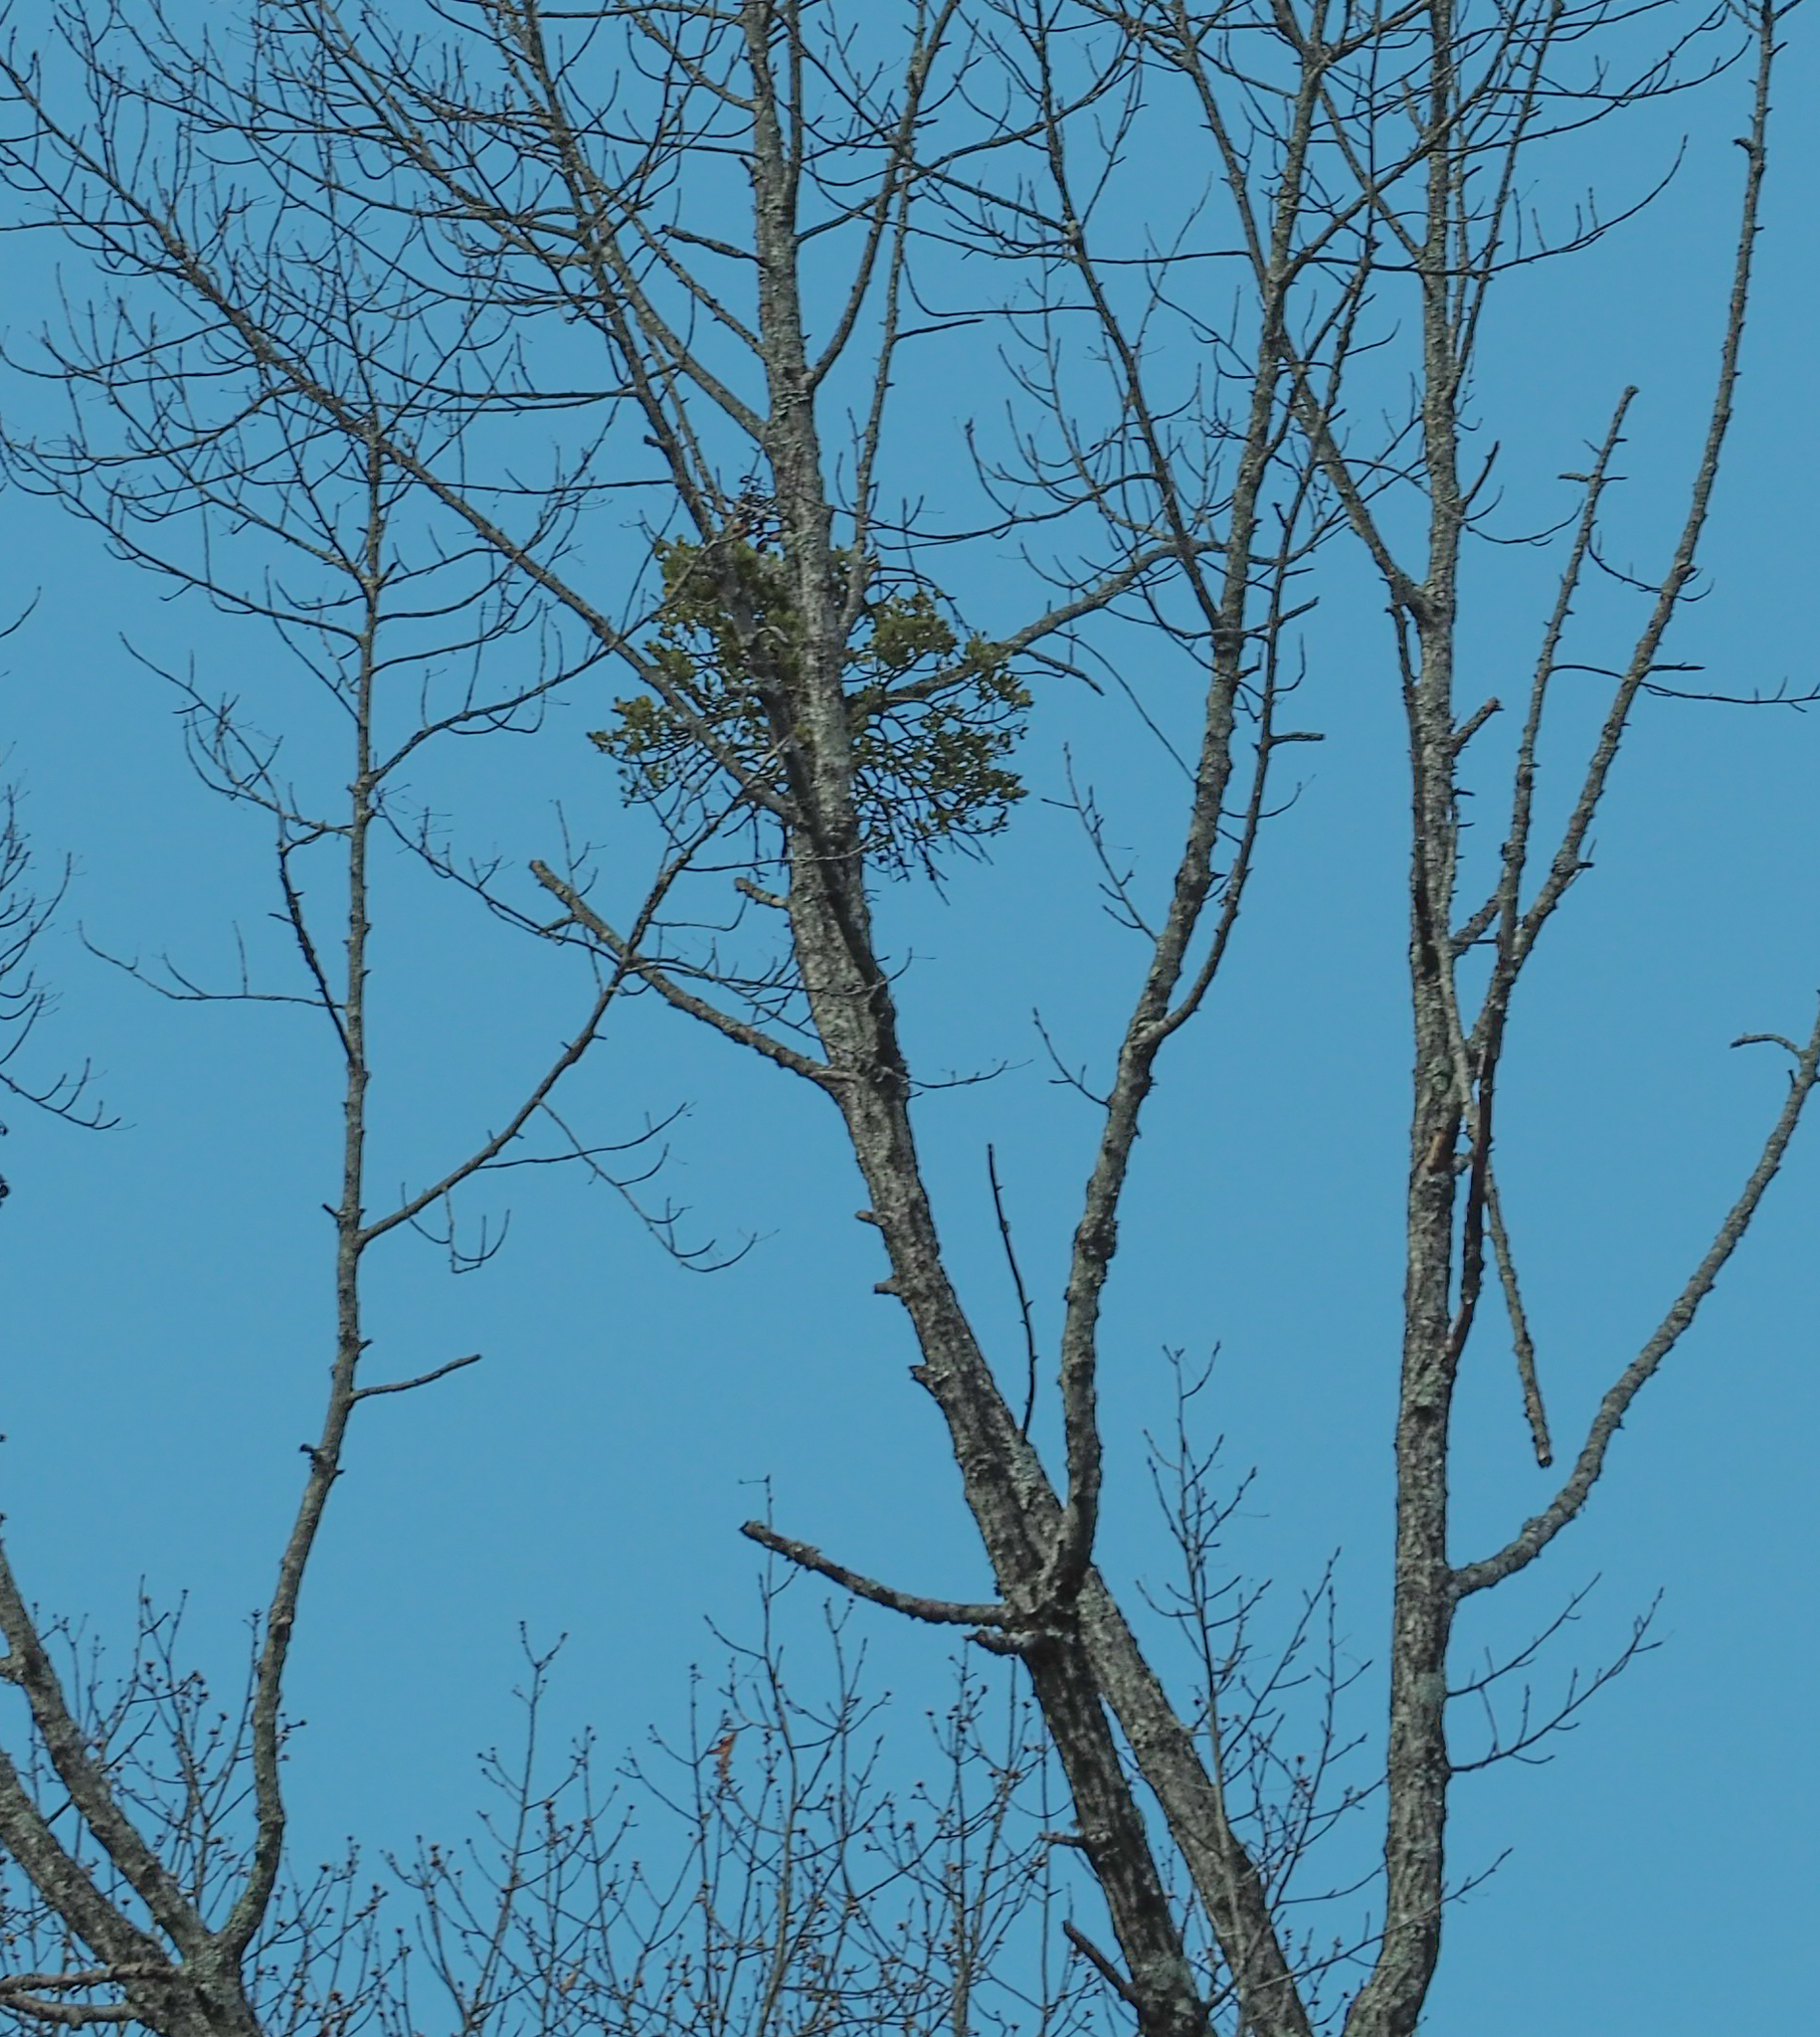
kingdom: Plantae
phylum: Tracheophyta
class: Magnoliopsida
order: Santalales
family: Viscaceae
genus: Phoradendron
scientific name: Phoradendron leucarpum
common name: Pacific mistletoe
